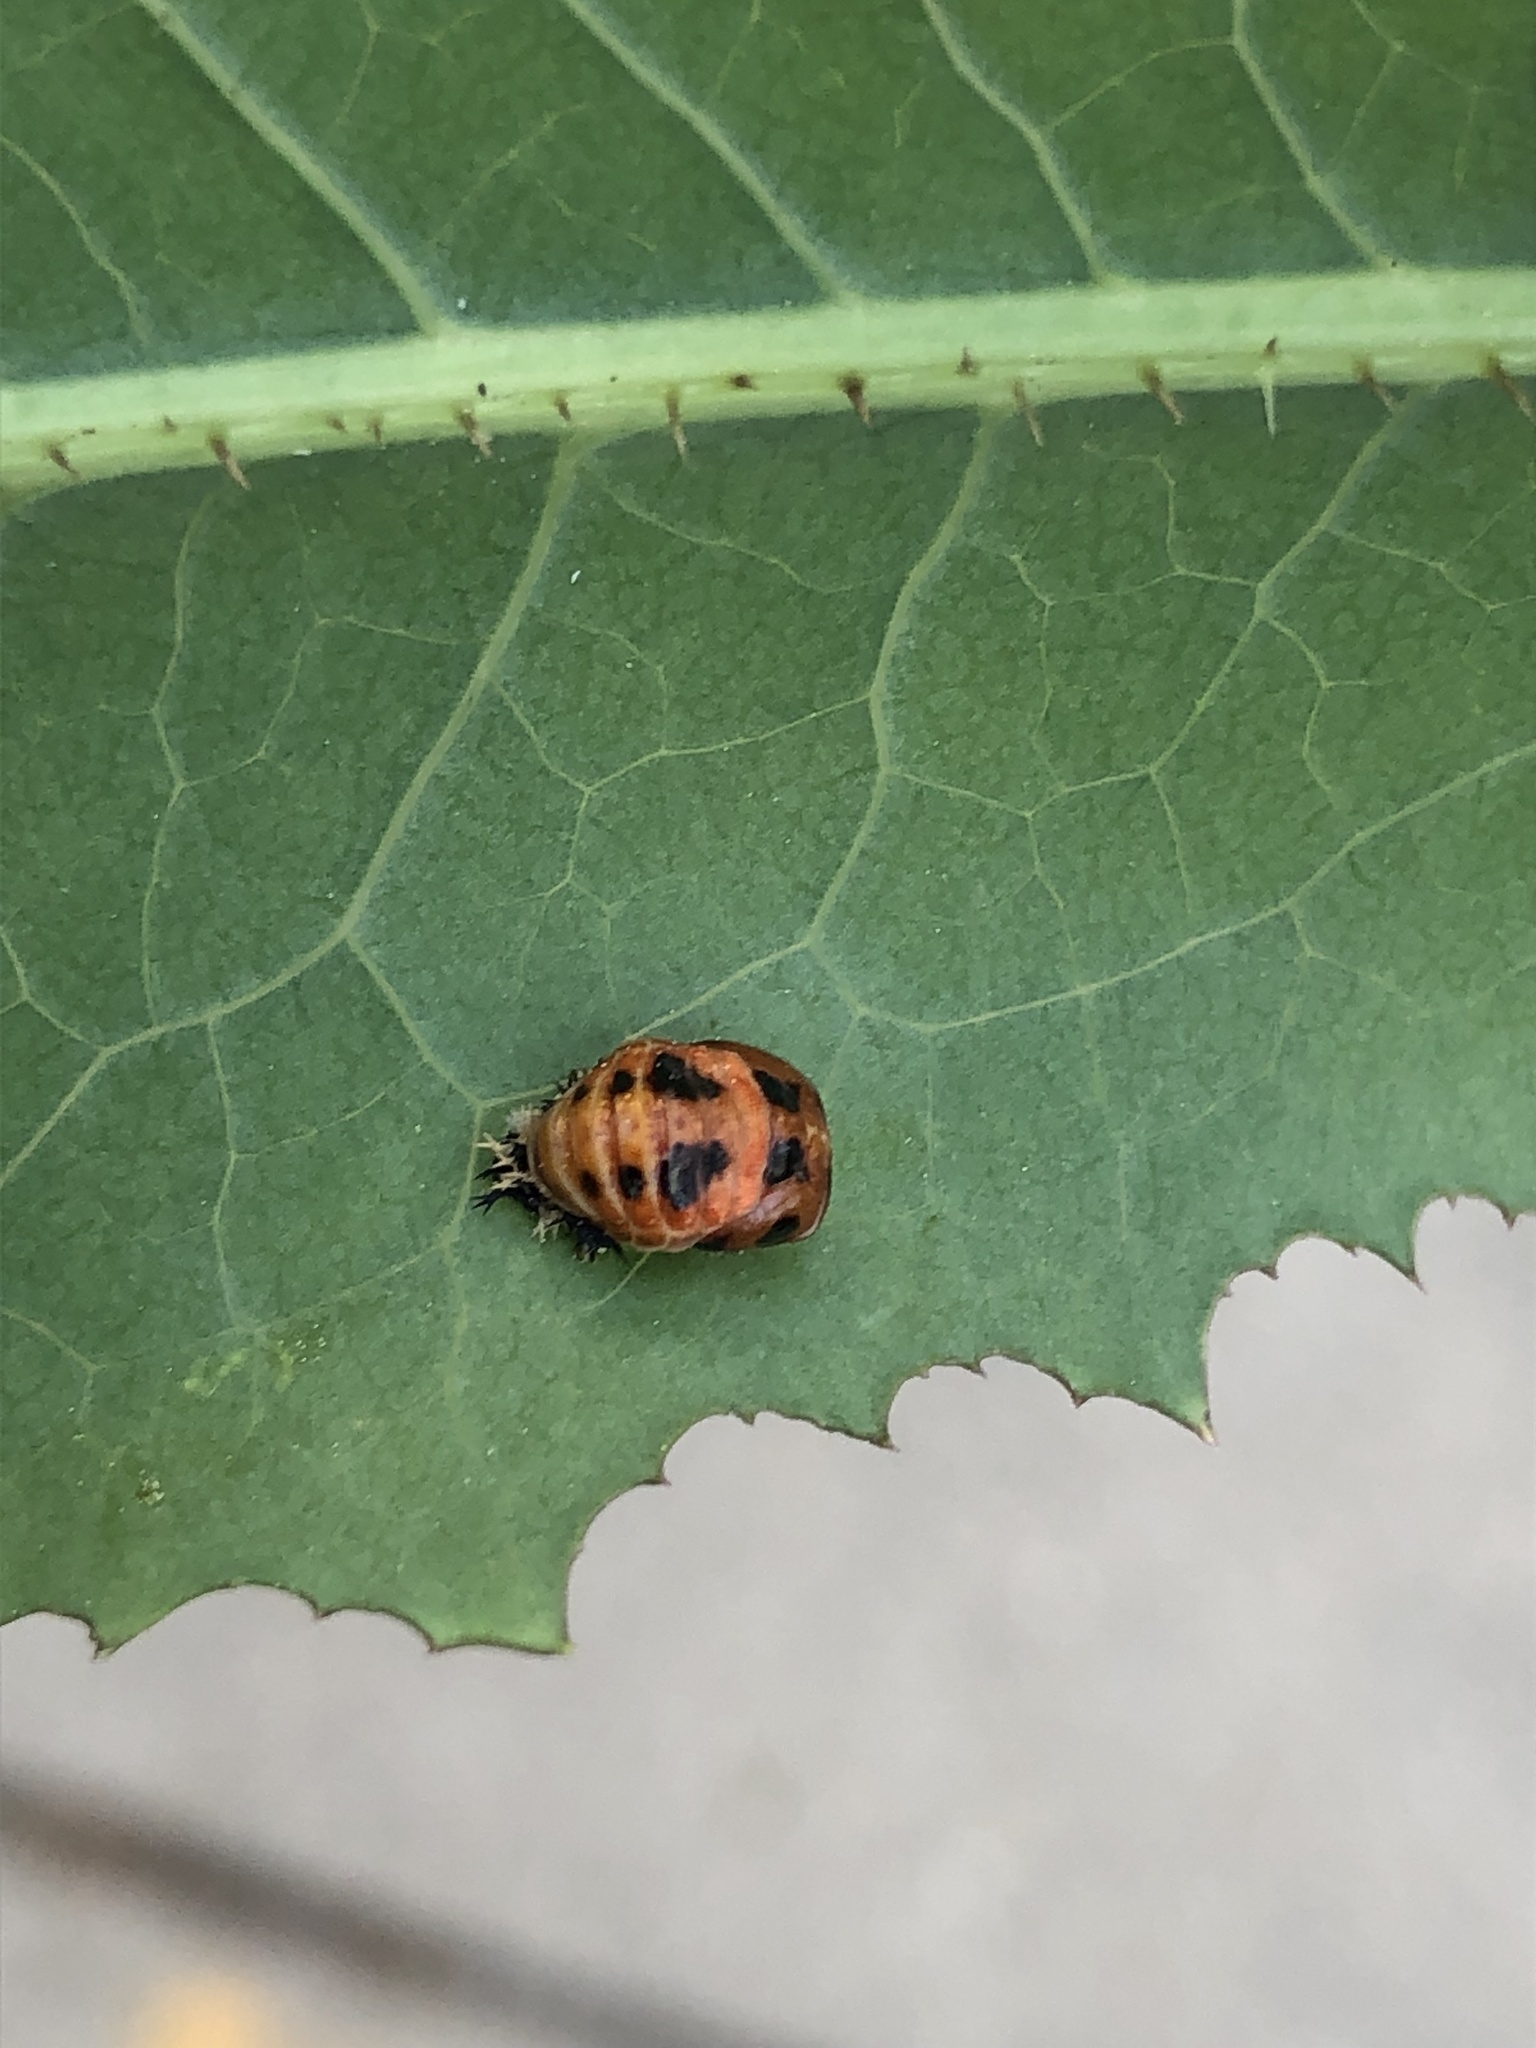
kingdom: Animalia
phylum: Arthropoda
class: Insecta
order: Coleoptera
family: Coccinellidae
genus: Harmonia
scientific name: Harmonia axyridis
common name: Harlequin ladybird
